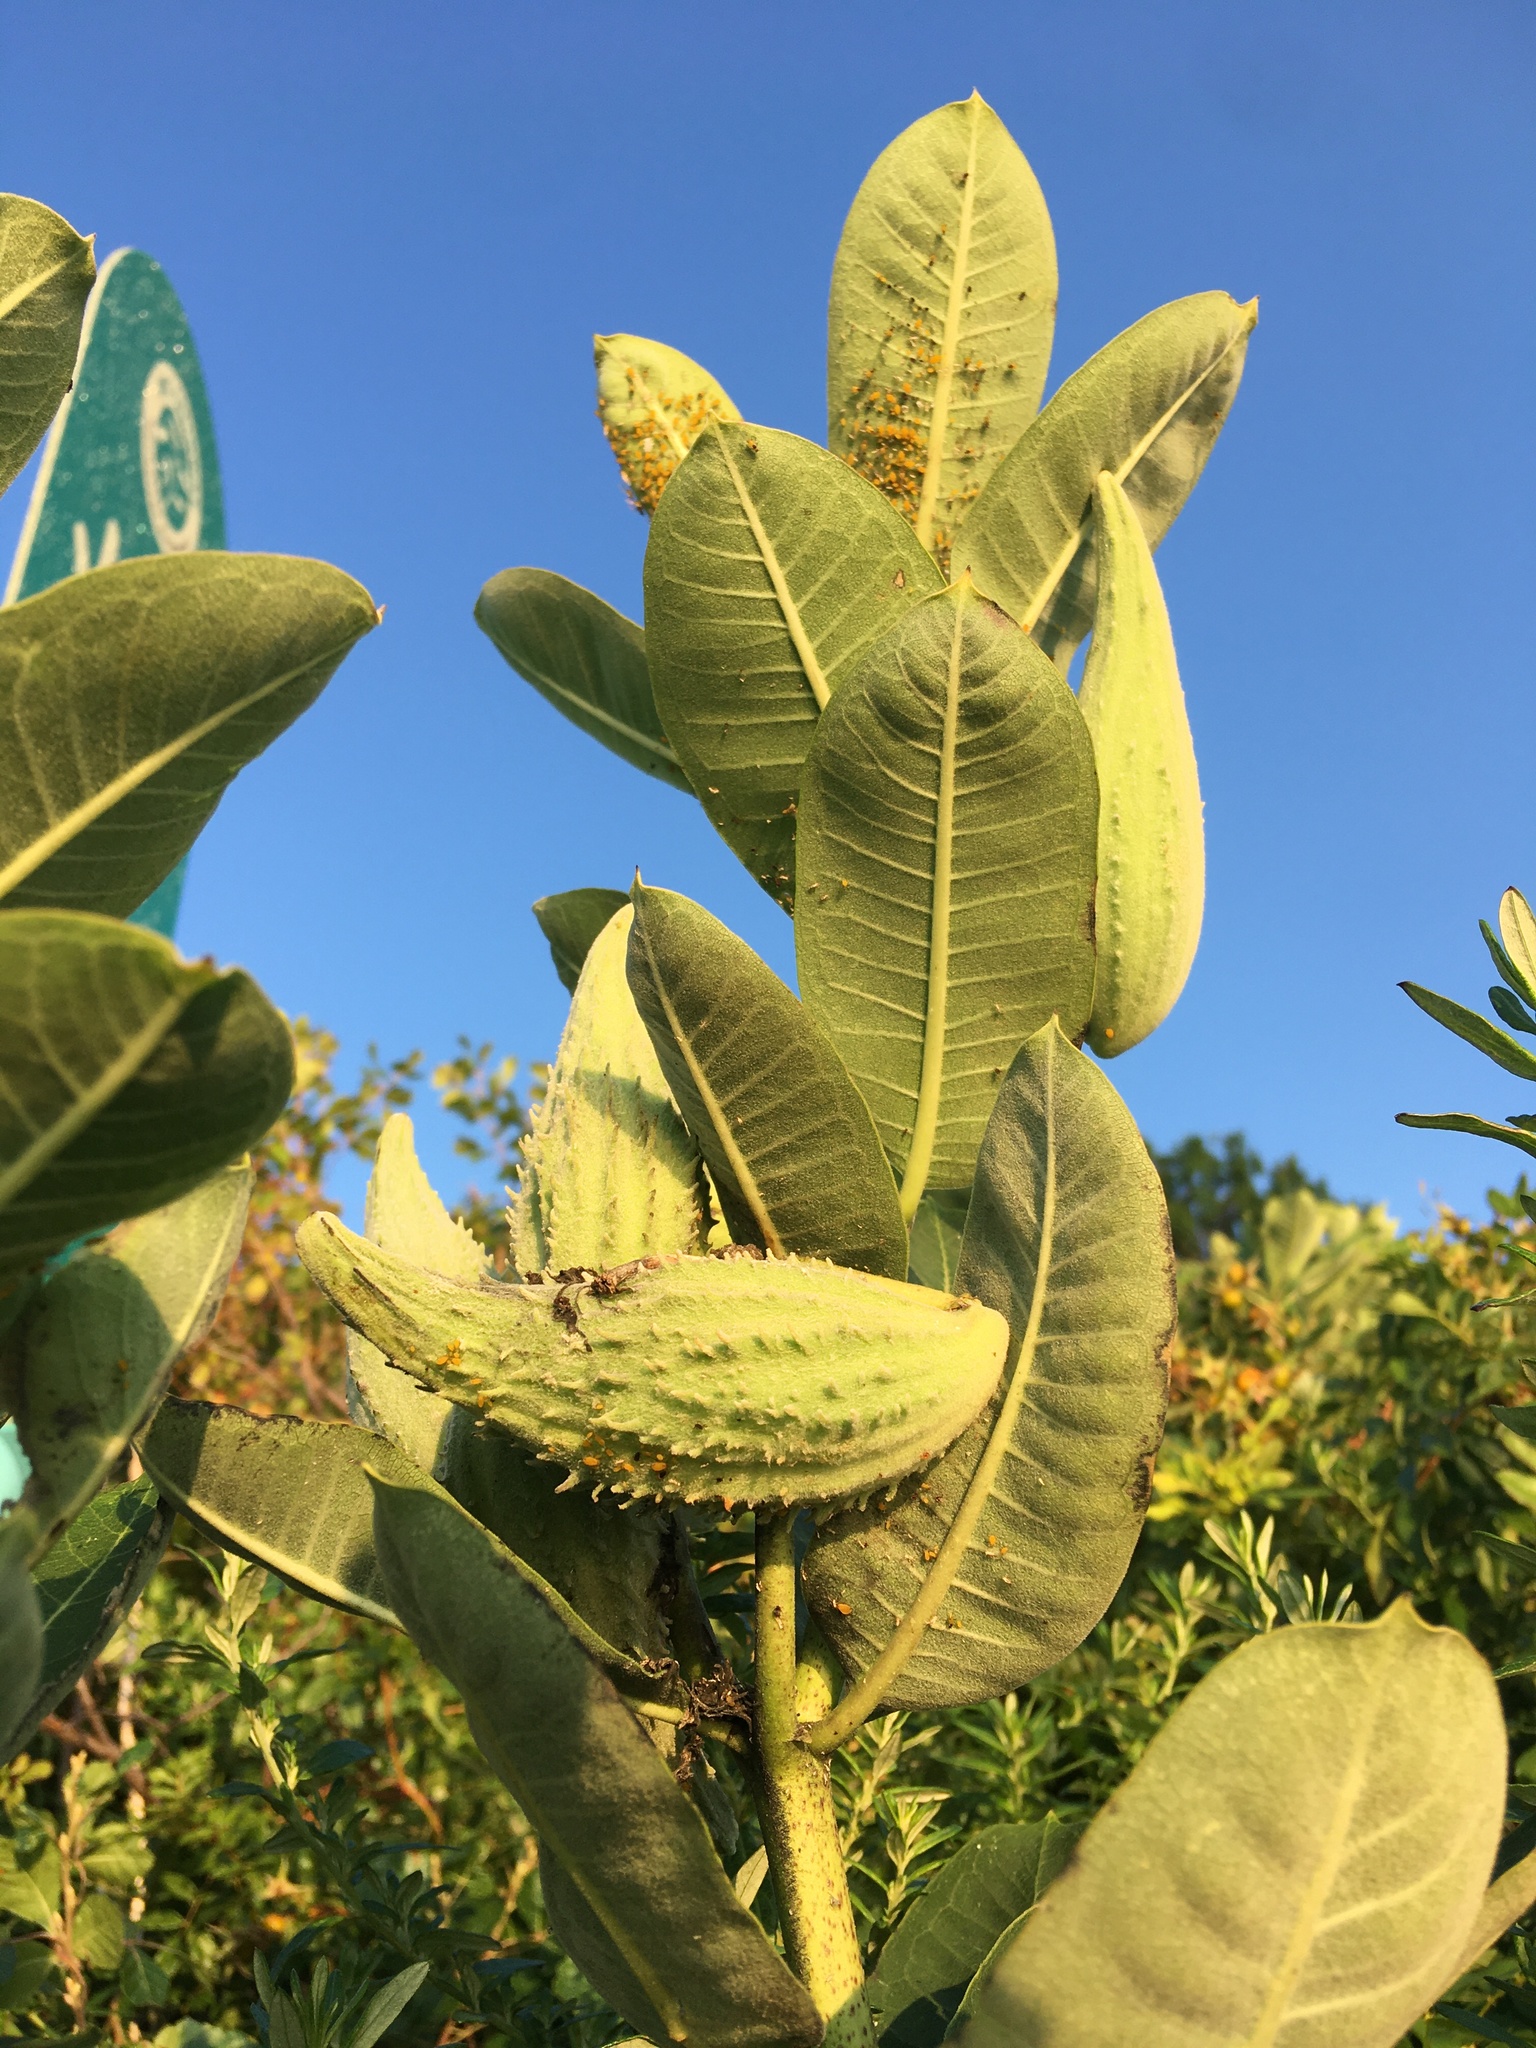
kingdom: Plantae
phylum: Tracheophyta
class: Magnoliopsida
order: Gentianales
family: Apocynaceae
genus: Asclepias
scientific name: Asclepias syriaca
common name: Common milkweed
